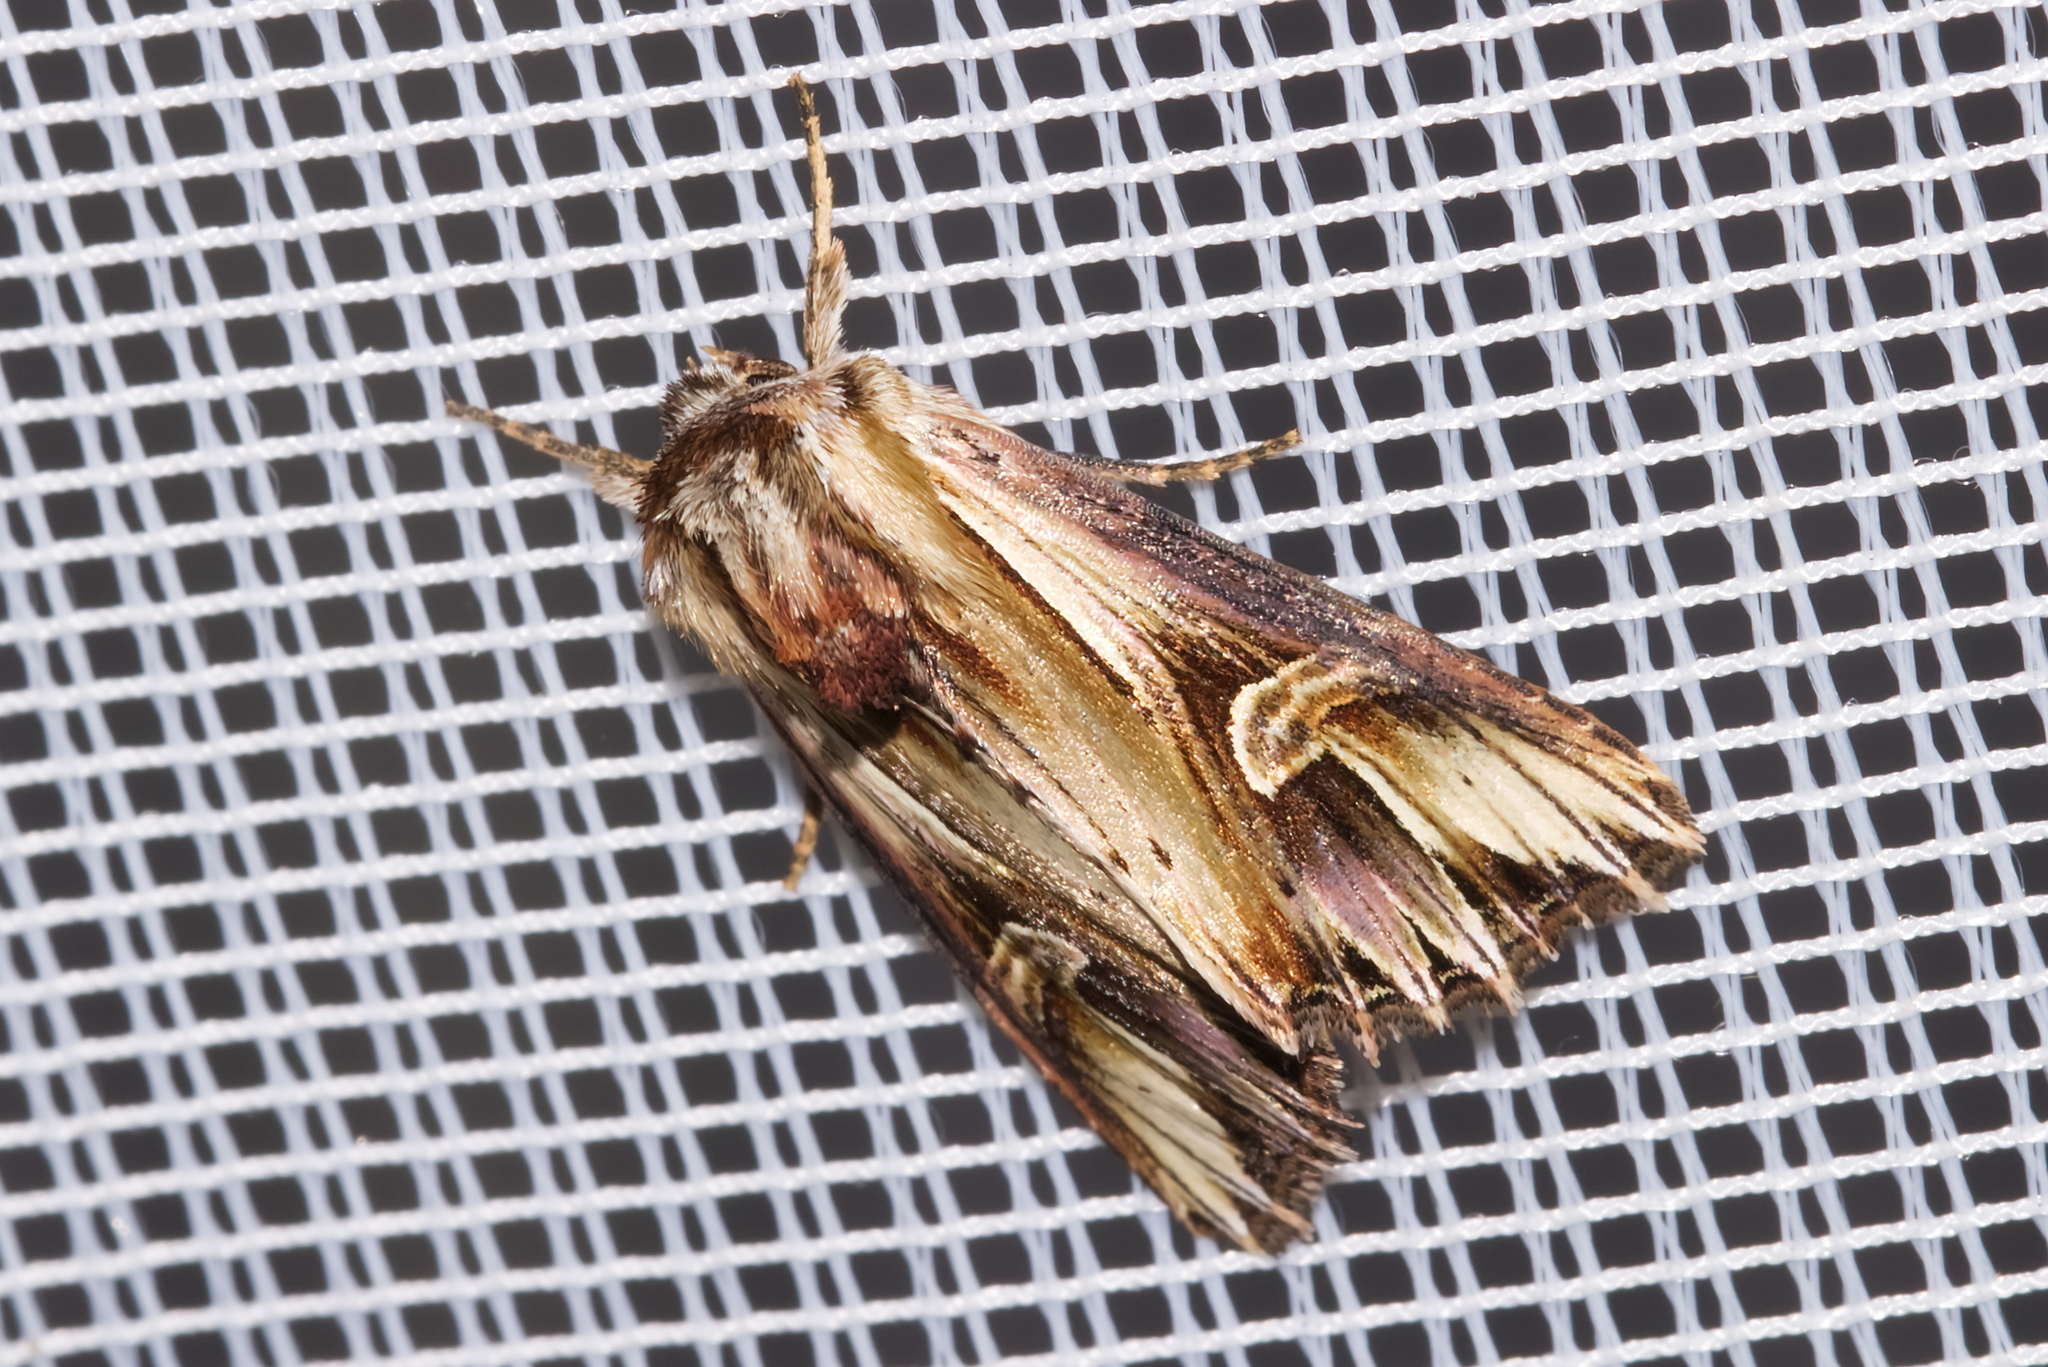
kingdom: Animalia
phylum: Arthropoda
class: Insecta
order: Lepidoptera
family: Noctuidae
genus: Actinotia
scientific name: Actinotia polyodon
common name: Purple cloud
